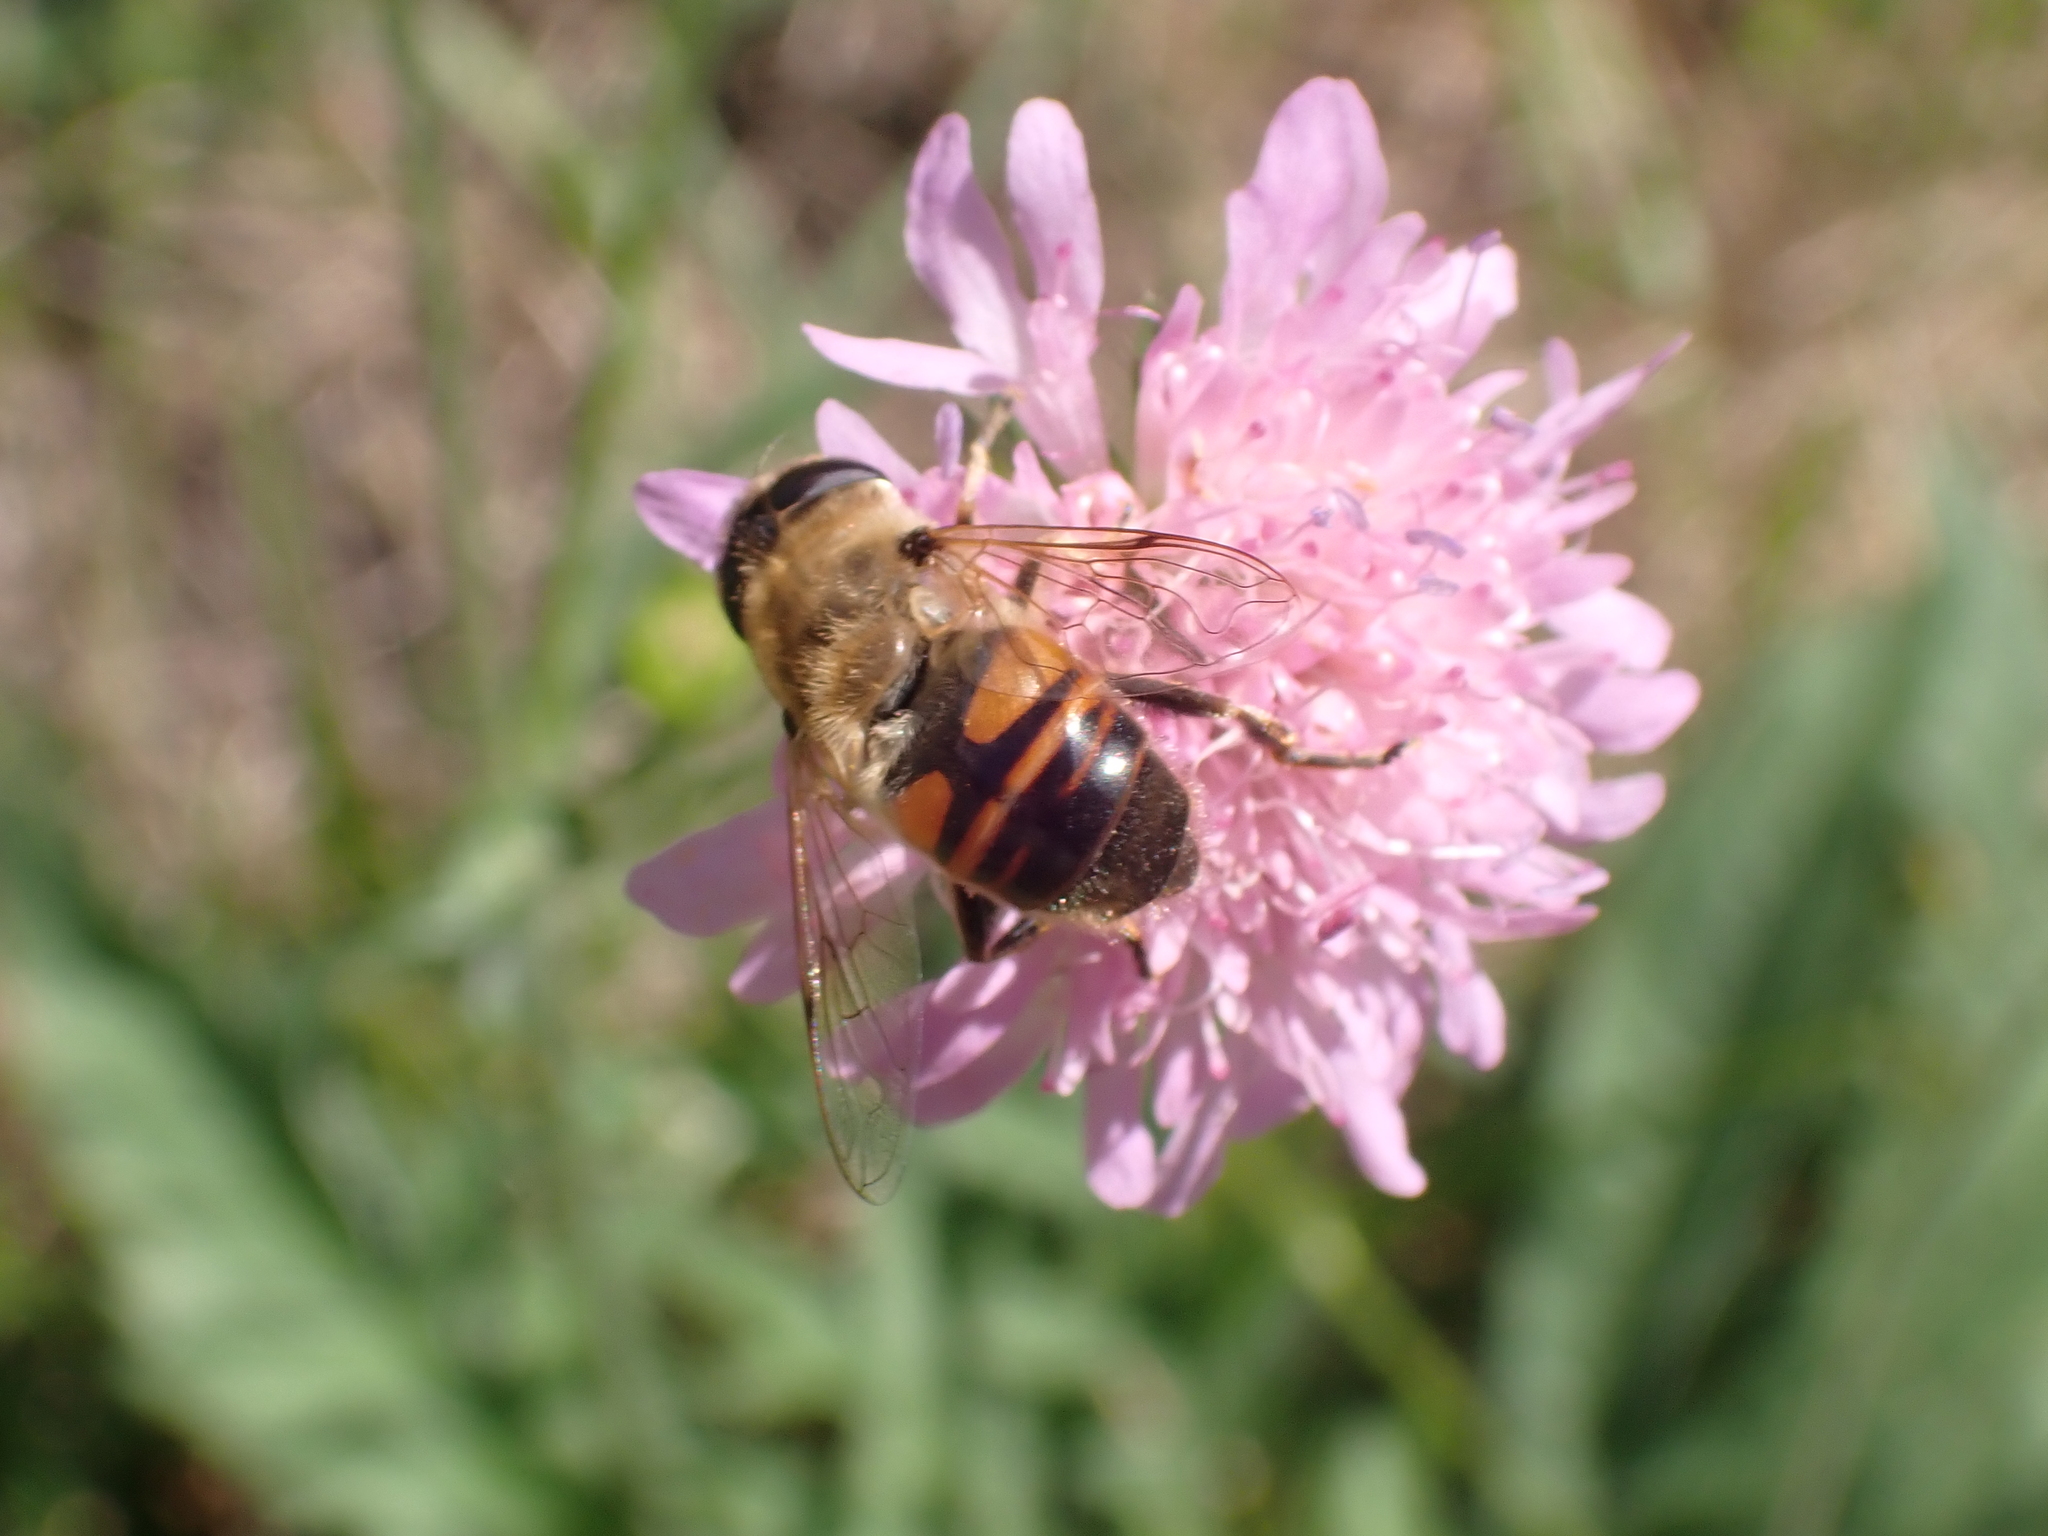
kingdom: Animalia
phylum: Arthropoda
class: Insecta
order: Diptera
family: Syrphidae
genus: Eristalis
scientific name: Eristalis tenax
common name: Drone fly
